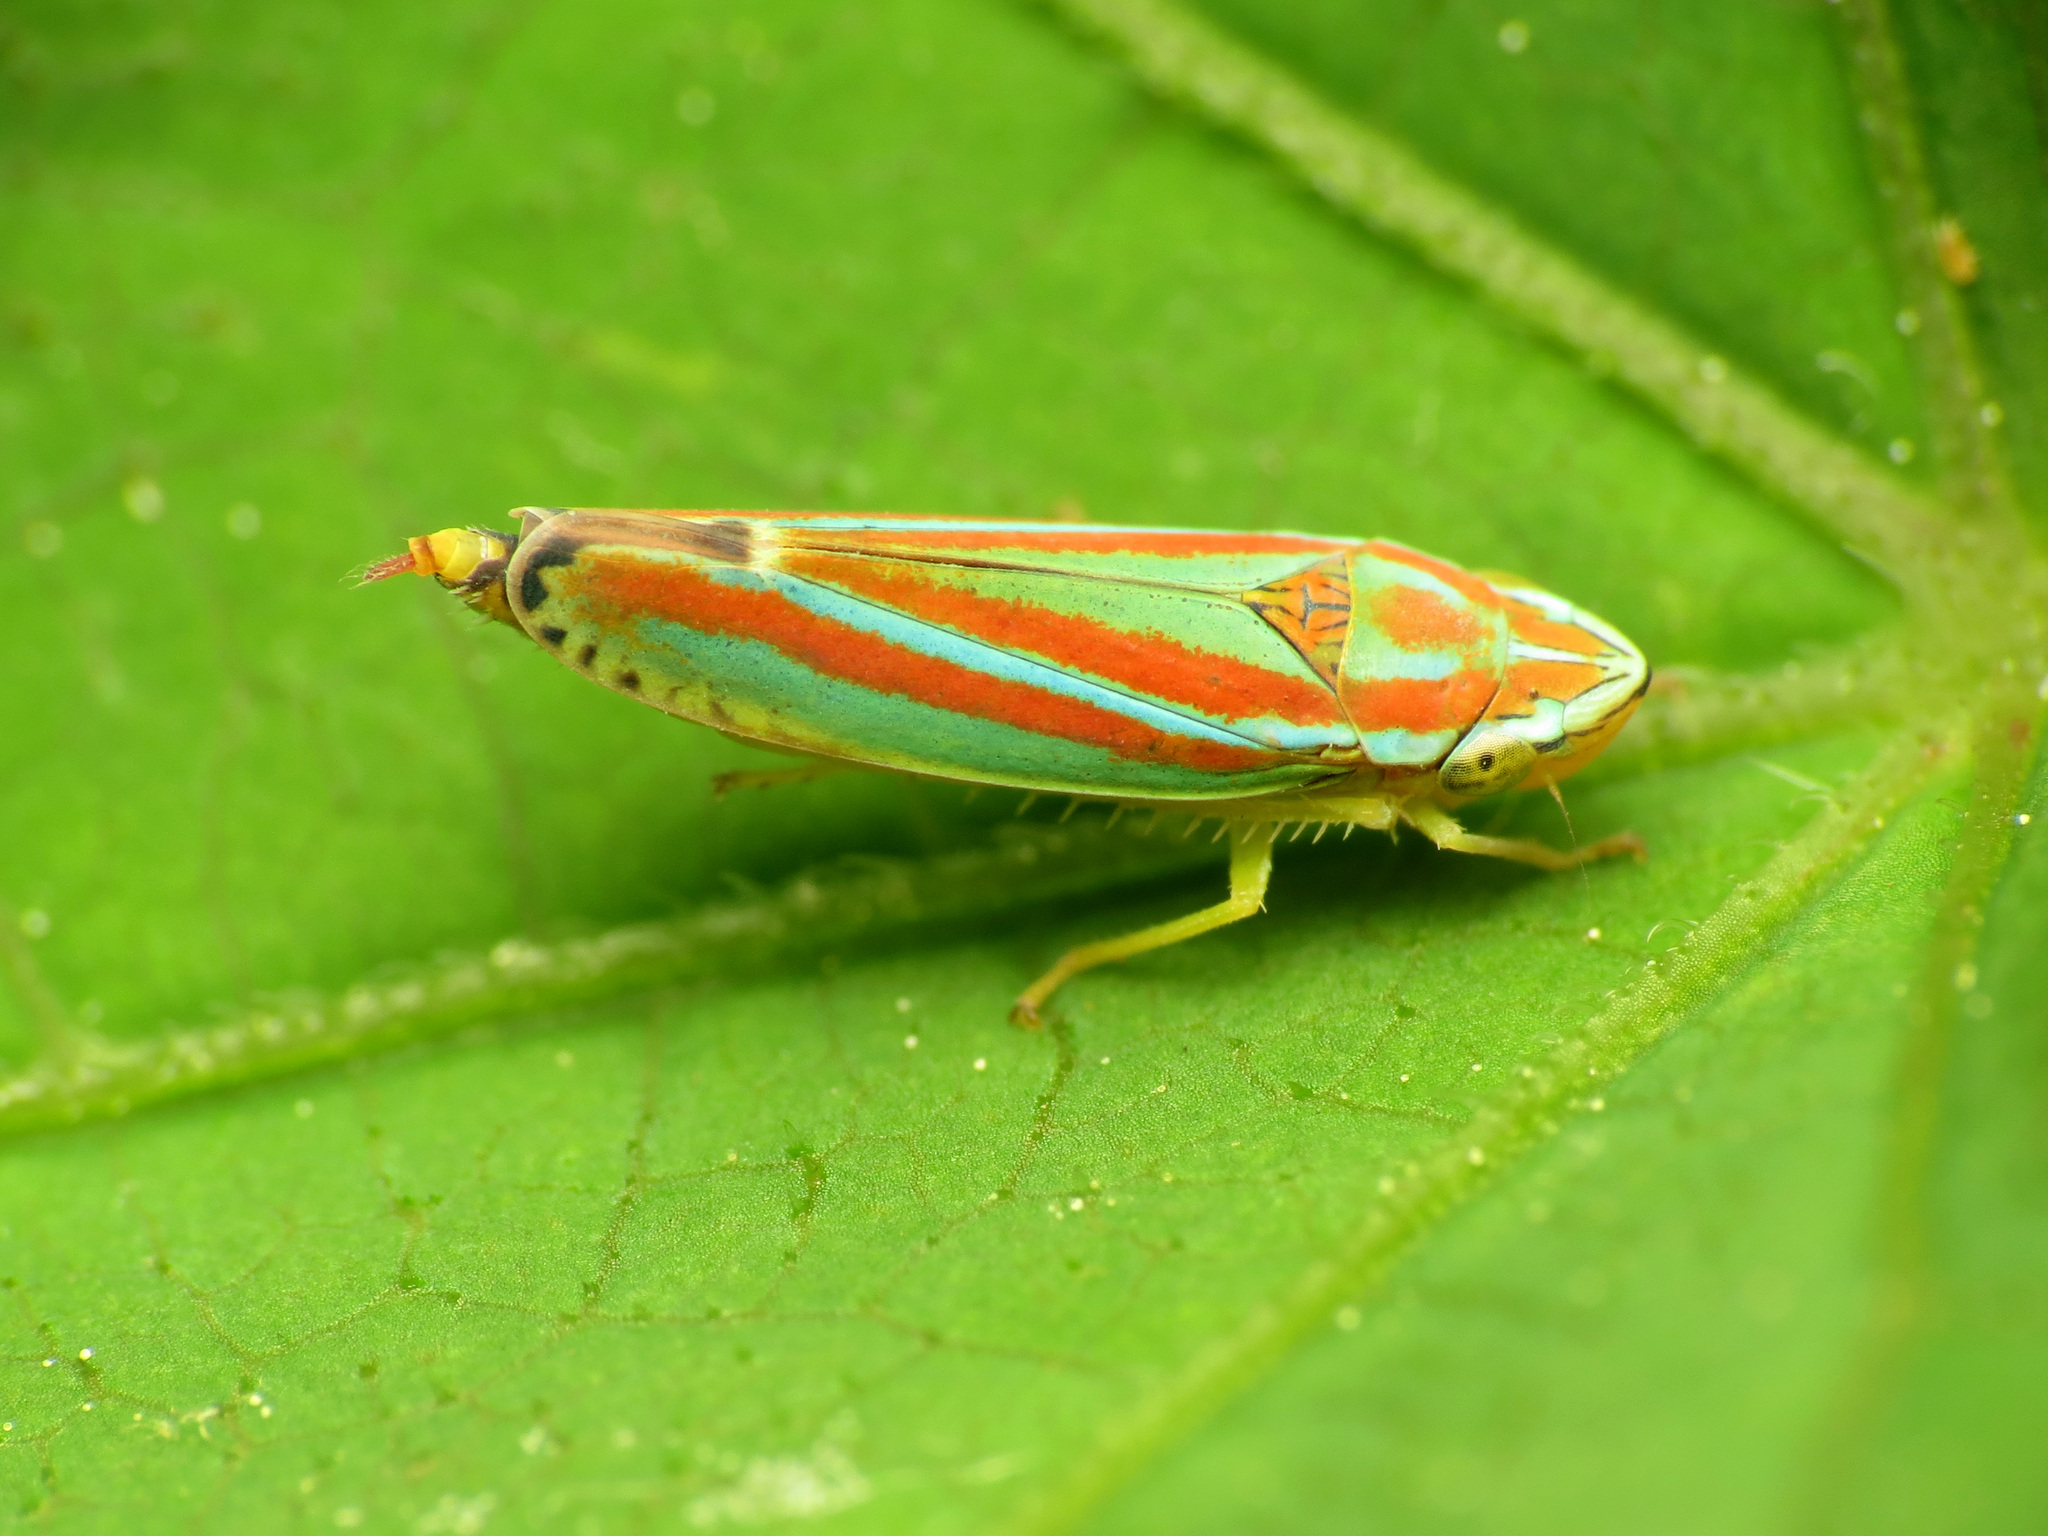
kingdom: Animalia
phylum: Arthropoda
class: Insecta
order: Hemiptera
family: Cicadellidae
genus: Graphocephala
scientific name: Graphocephala versuta
